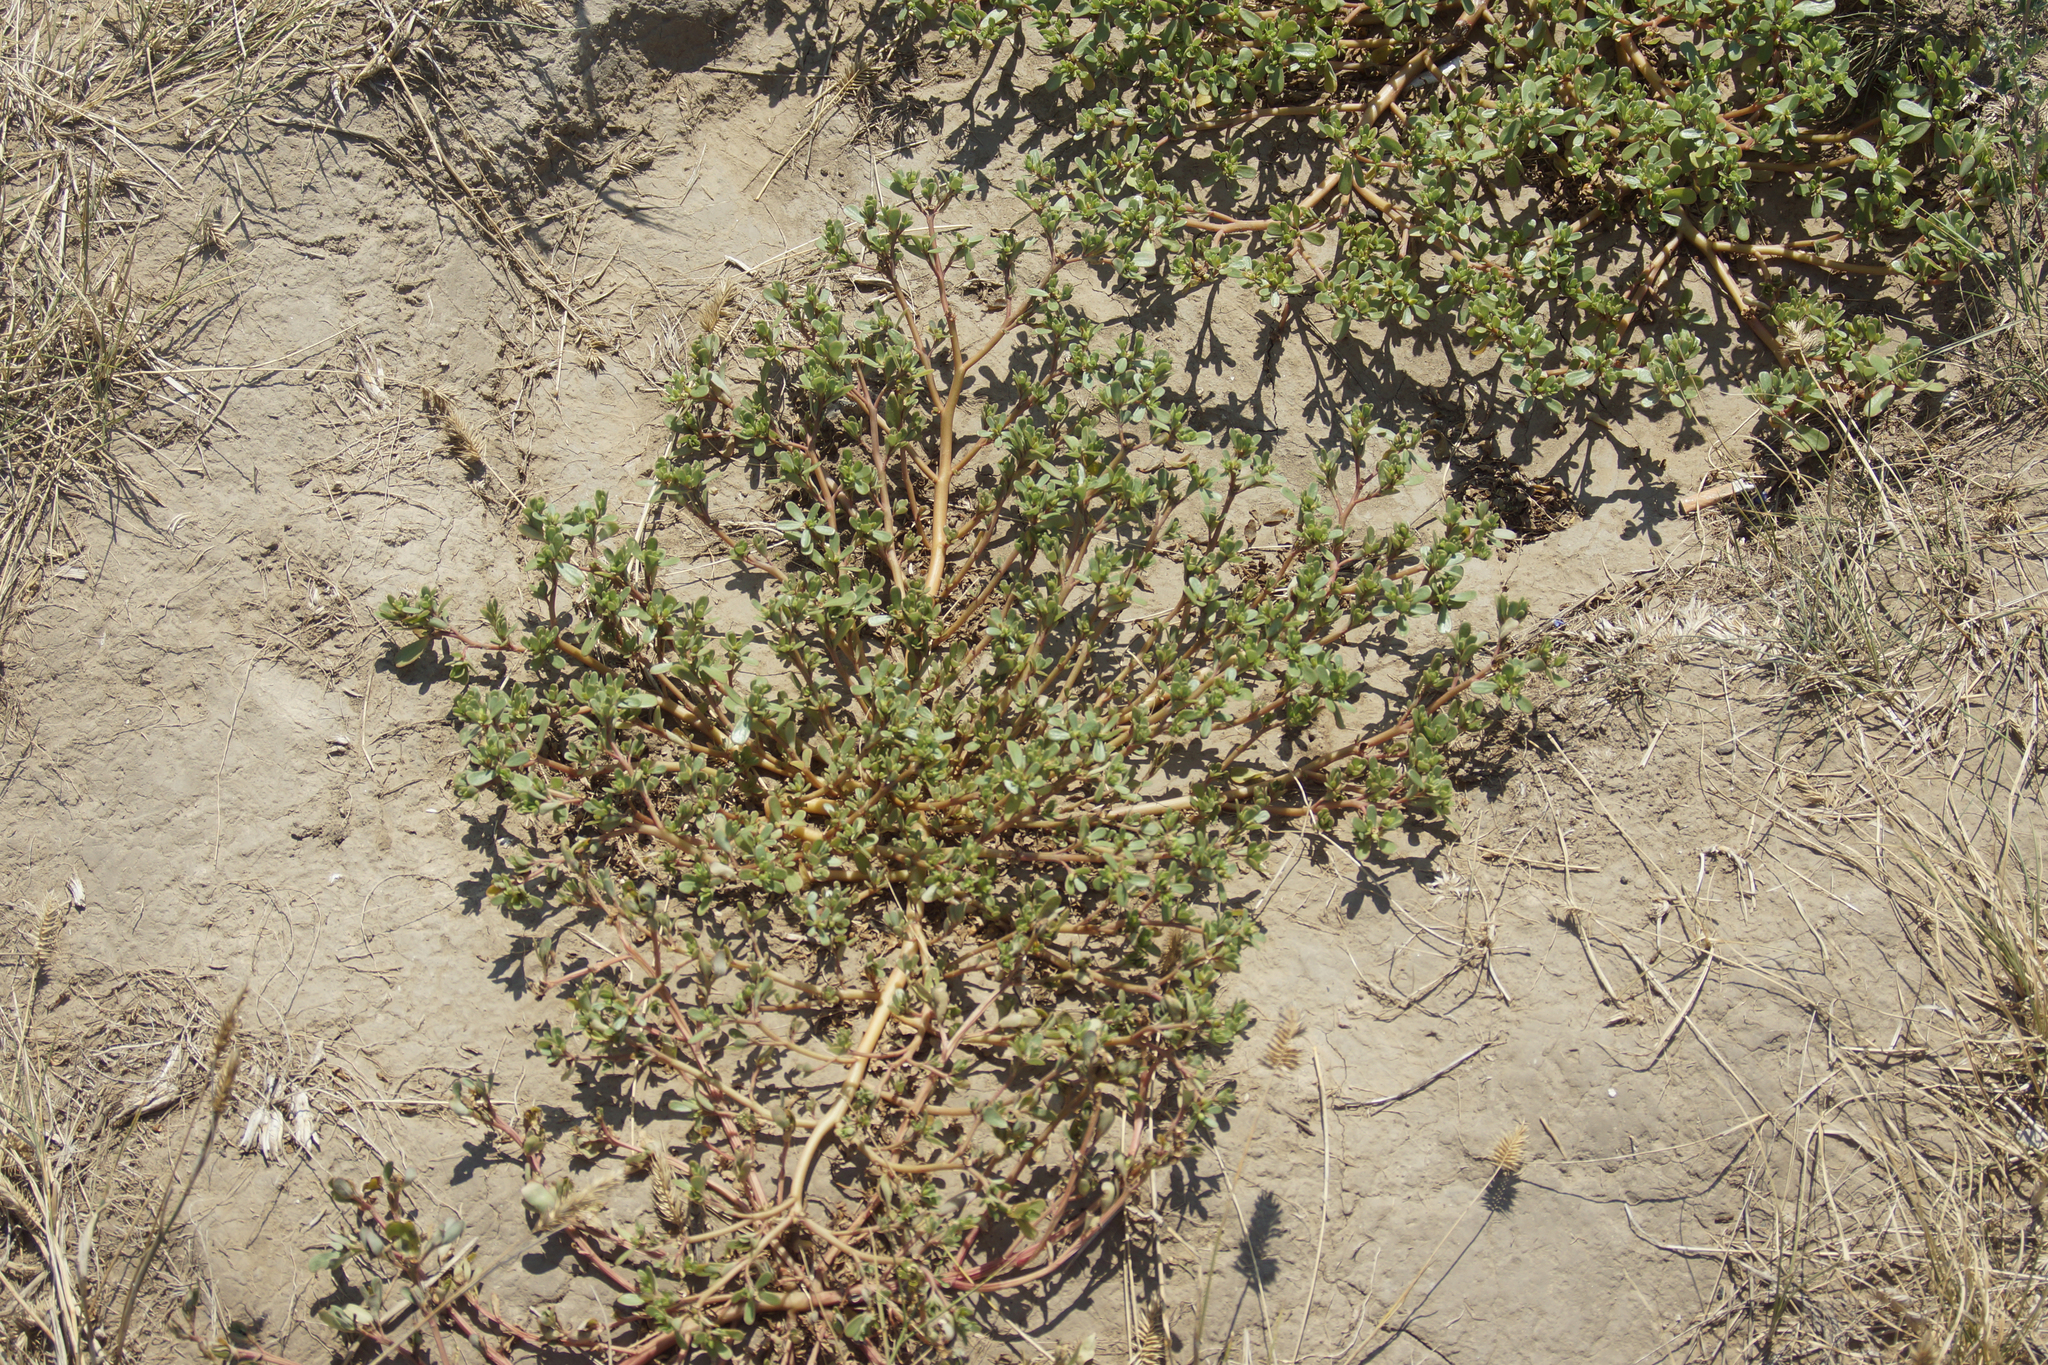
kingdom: Plantae
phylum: Tracheophyta
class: Magnoliopsida
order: Caryophyllales
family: Portulacaceae
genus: Portulaca
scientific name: Portulaca oleracea
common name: Common purslane
